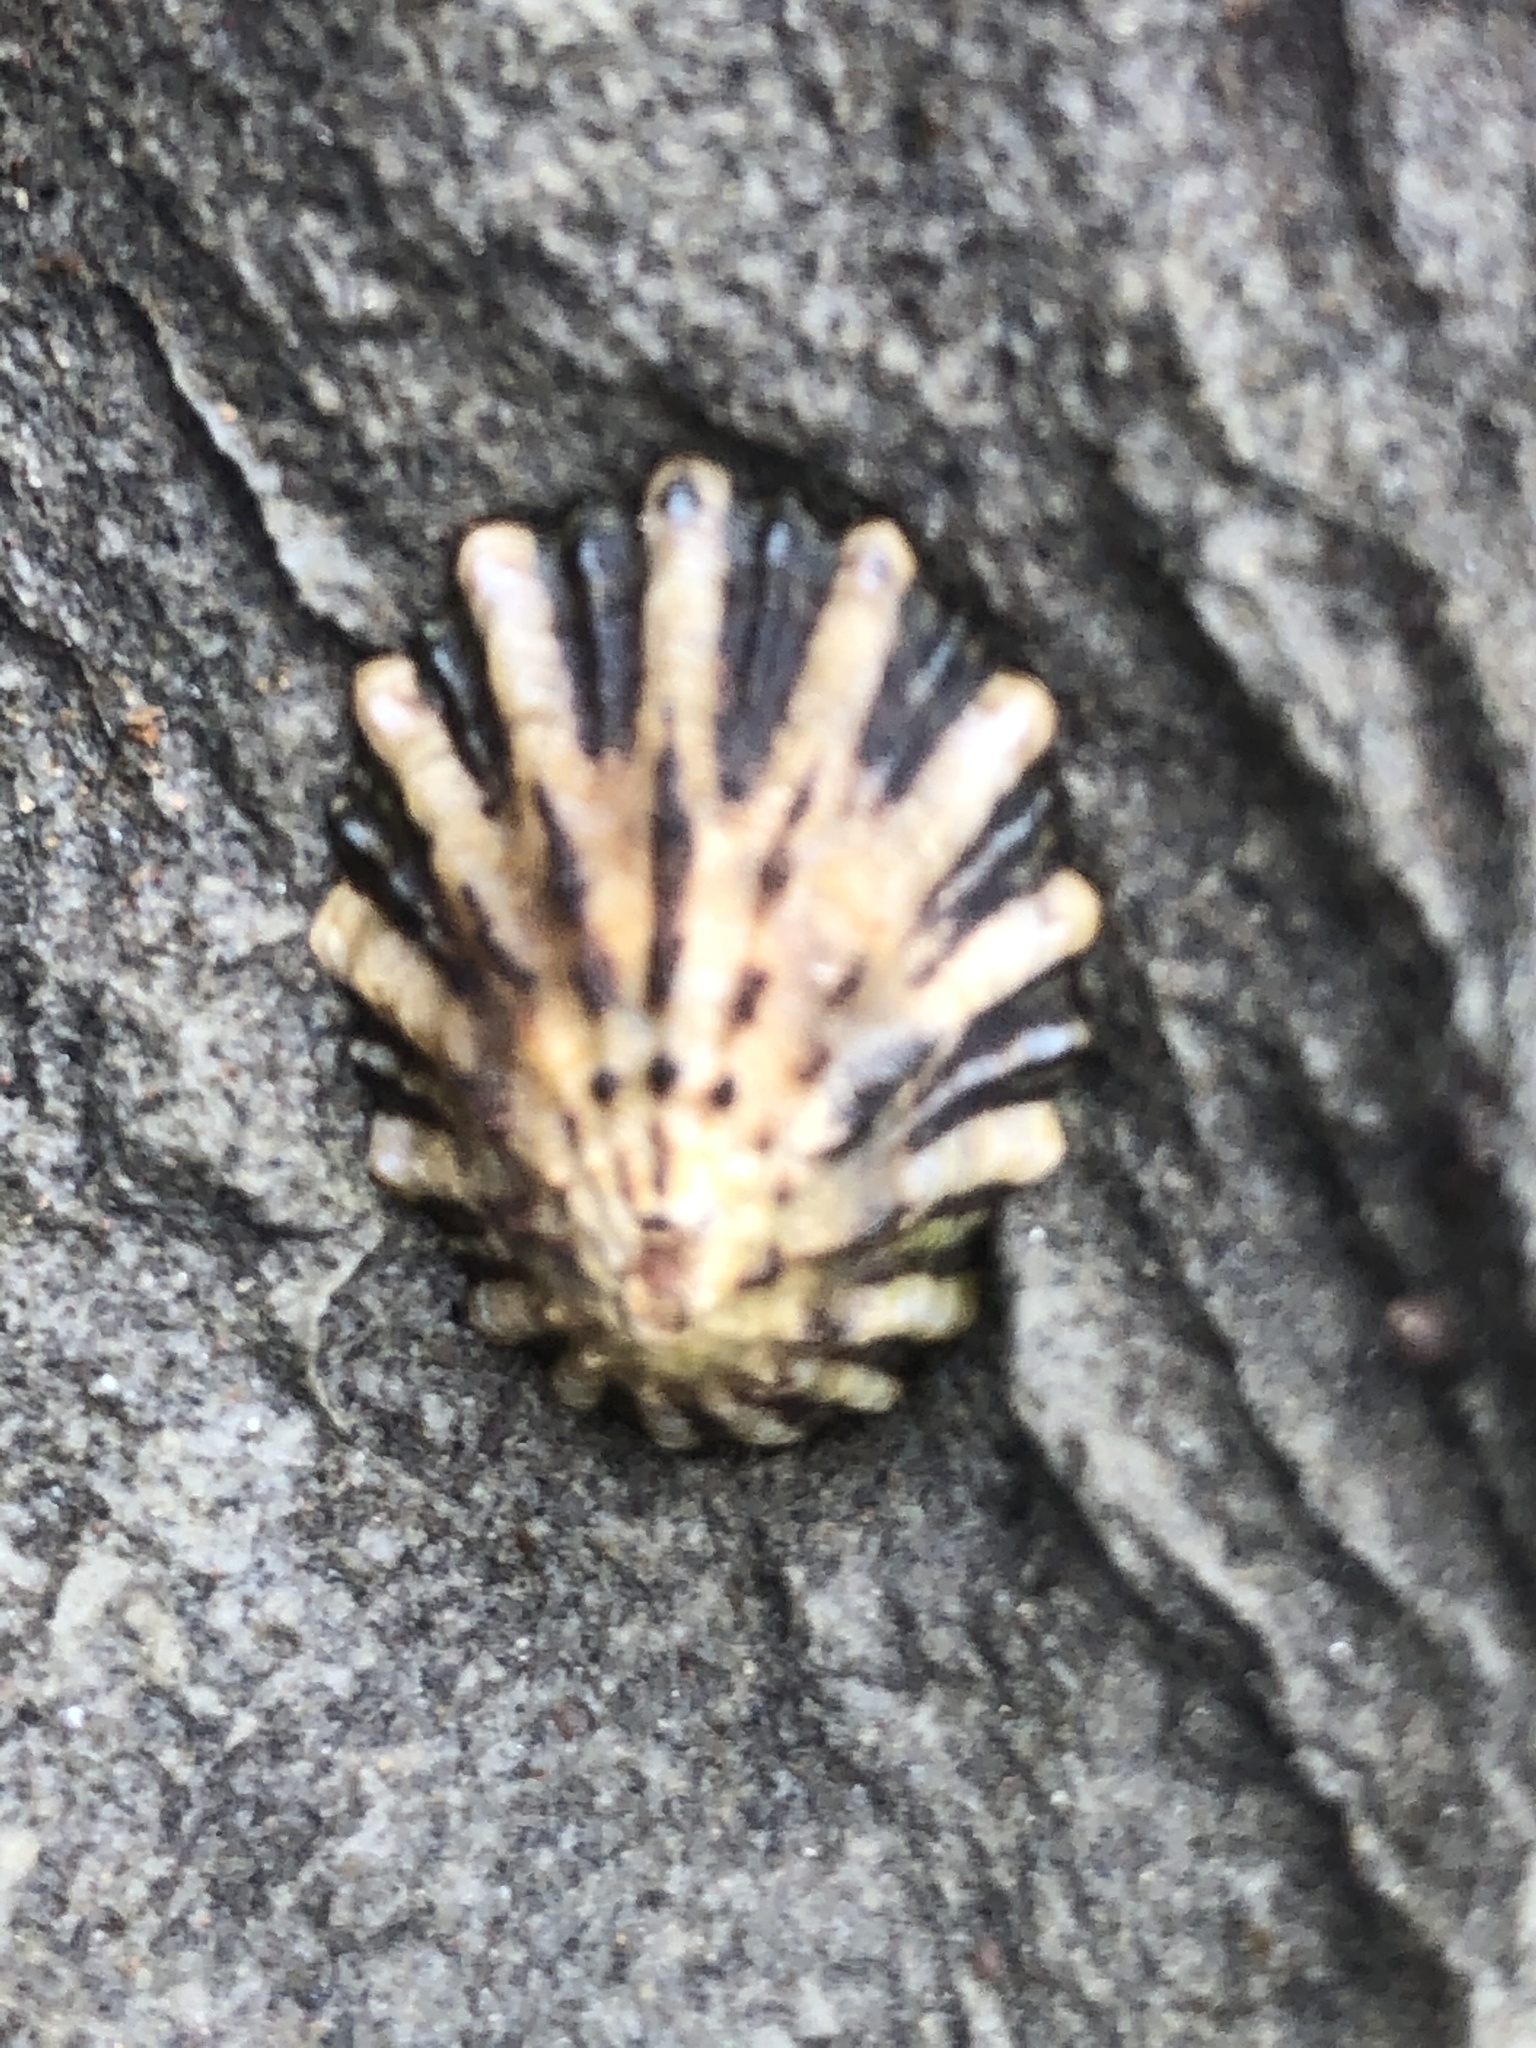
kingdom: Animalia
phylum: Mollusca
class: Gastropoda
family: Lottiidae
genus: Lottia
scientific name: Lottia scabra
